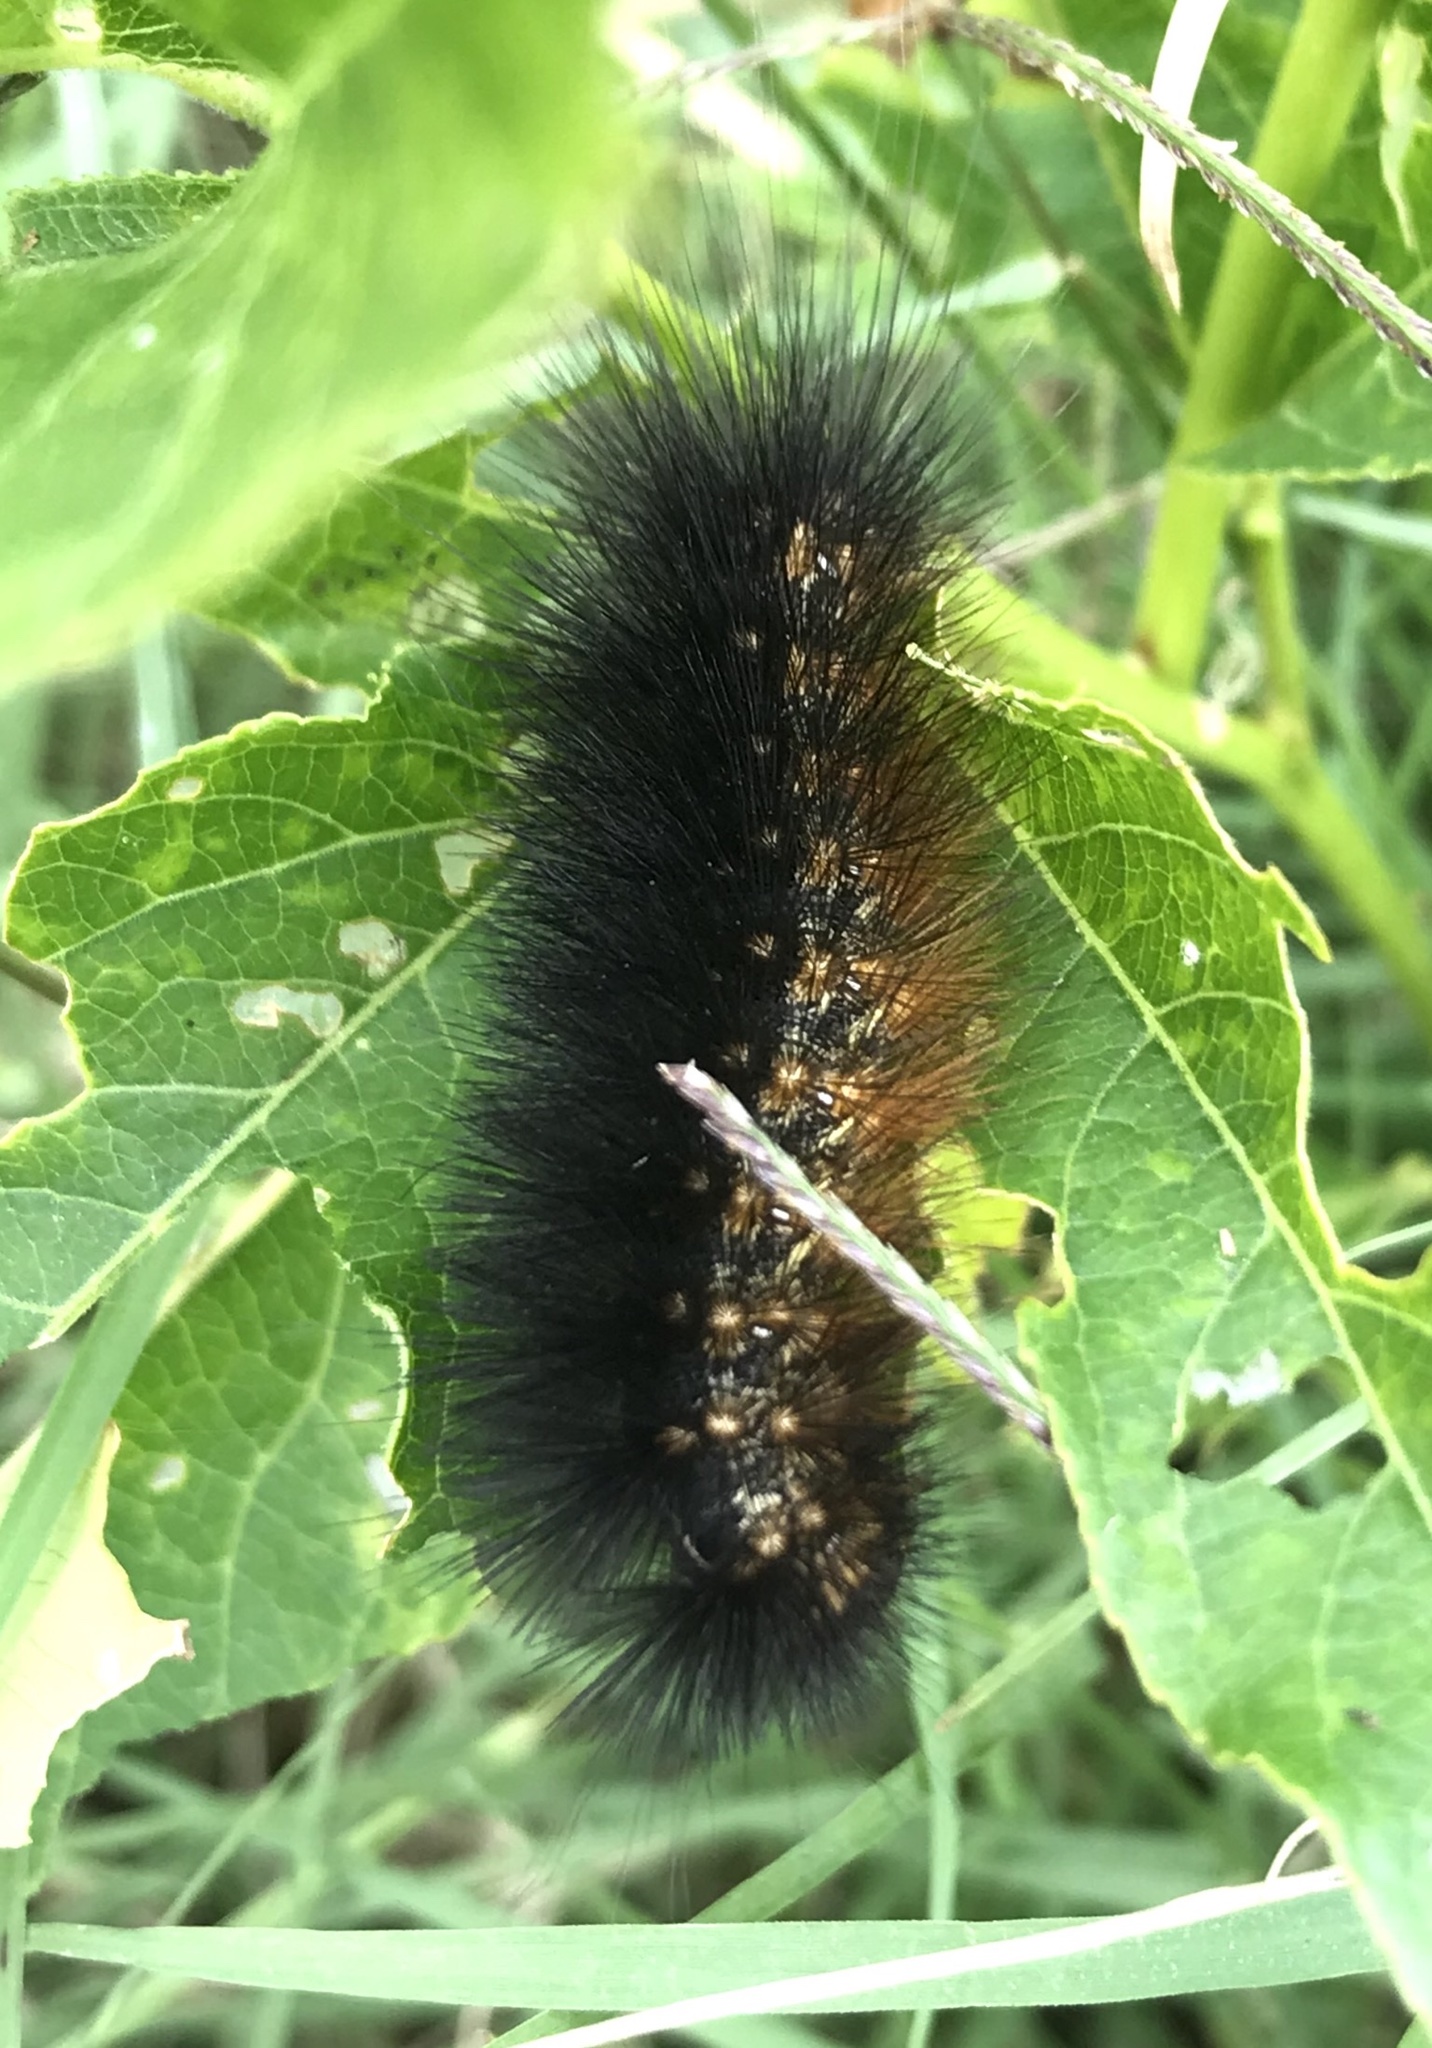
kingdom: Animalia
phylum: Arthropoda
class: Insecta
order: Lepidoptera
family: Erebidae
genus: Estigmene
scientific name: Estigmene acrea
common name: Salt marsh moth
